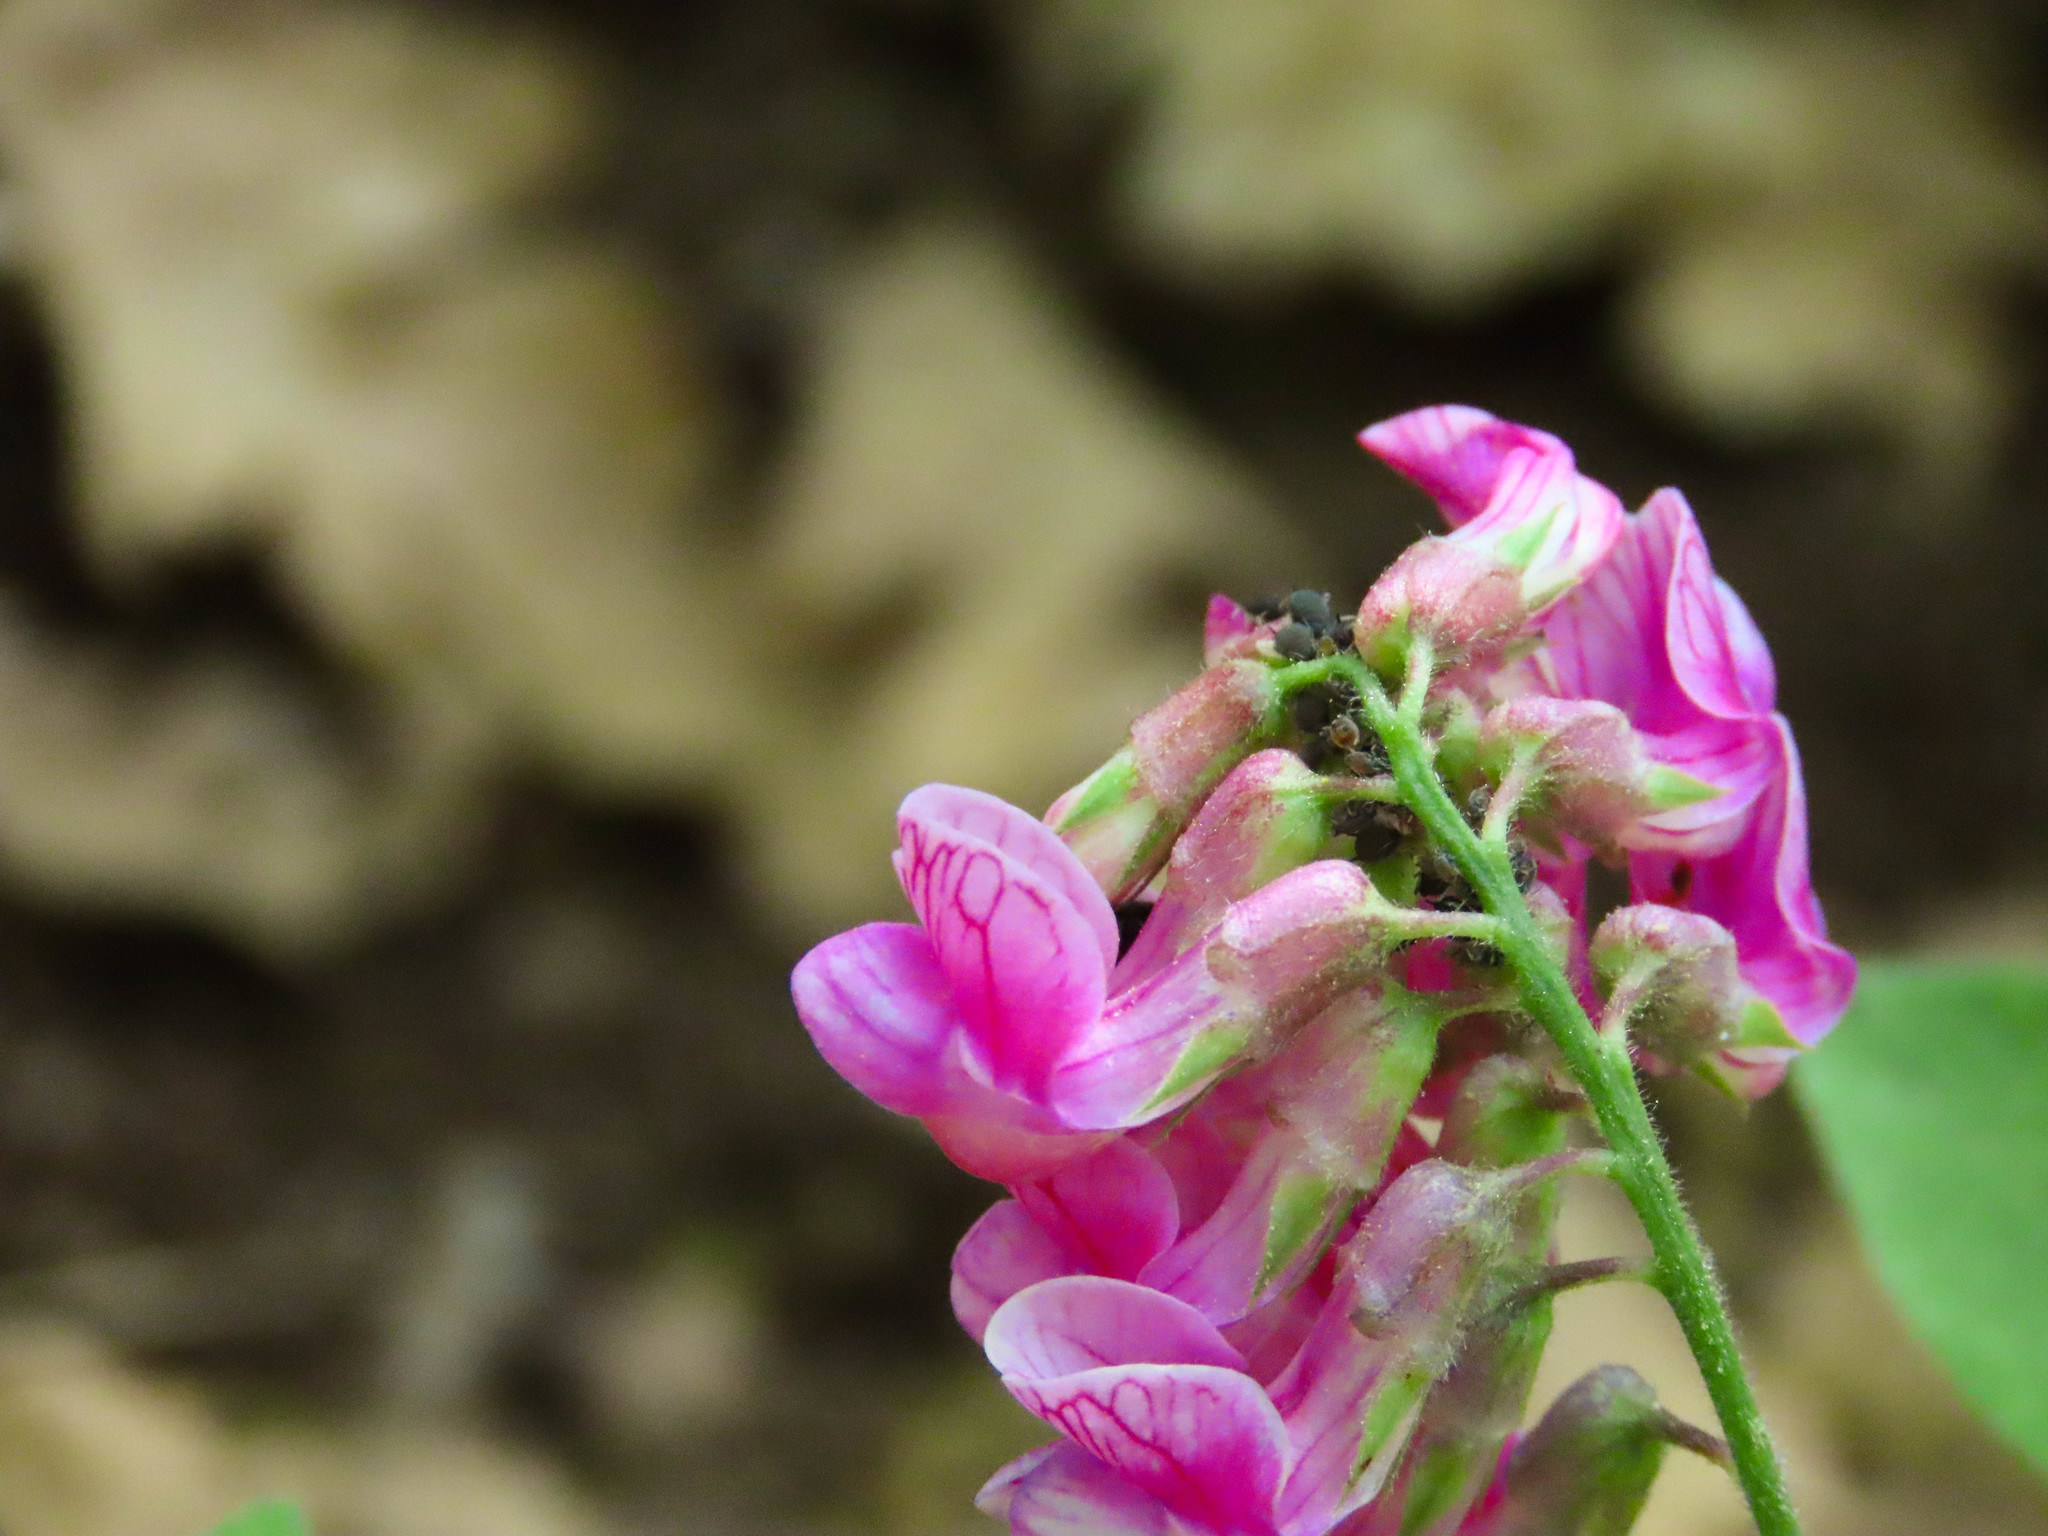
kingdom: Plantae
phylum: Tracheophyta
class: Magnoliopsida
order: Fabales
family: Fabaceae
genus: Lathyrus
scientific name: Lathyrus venetus
